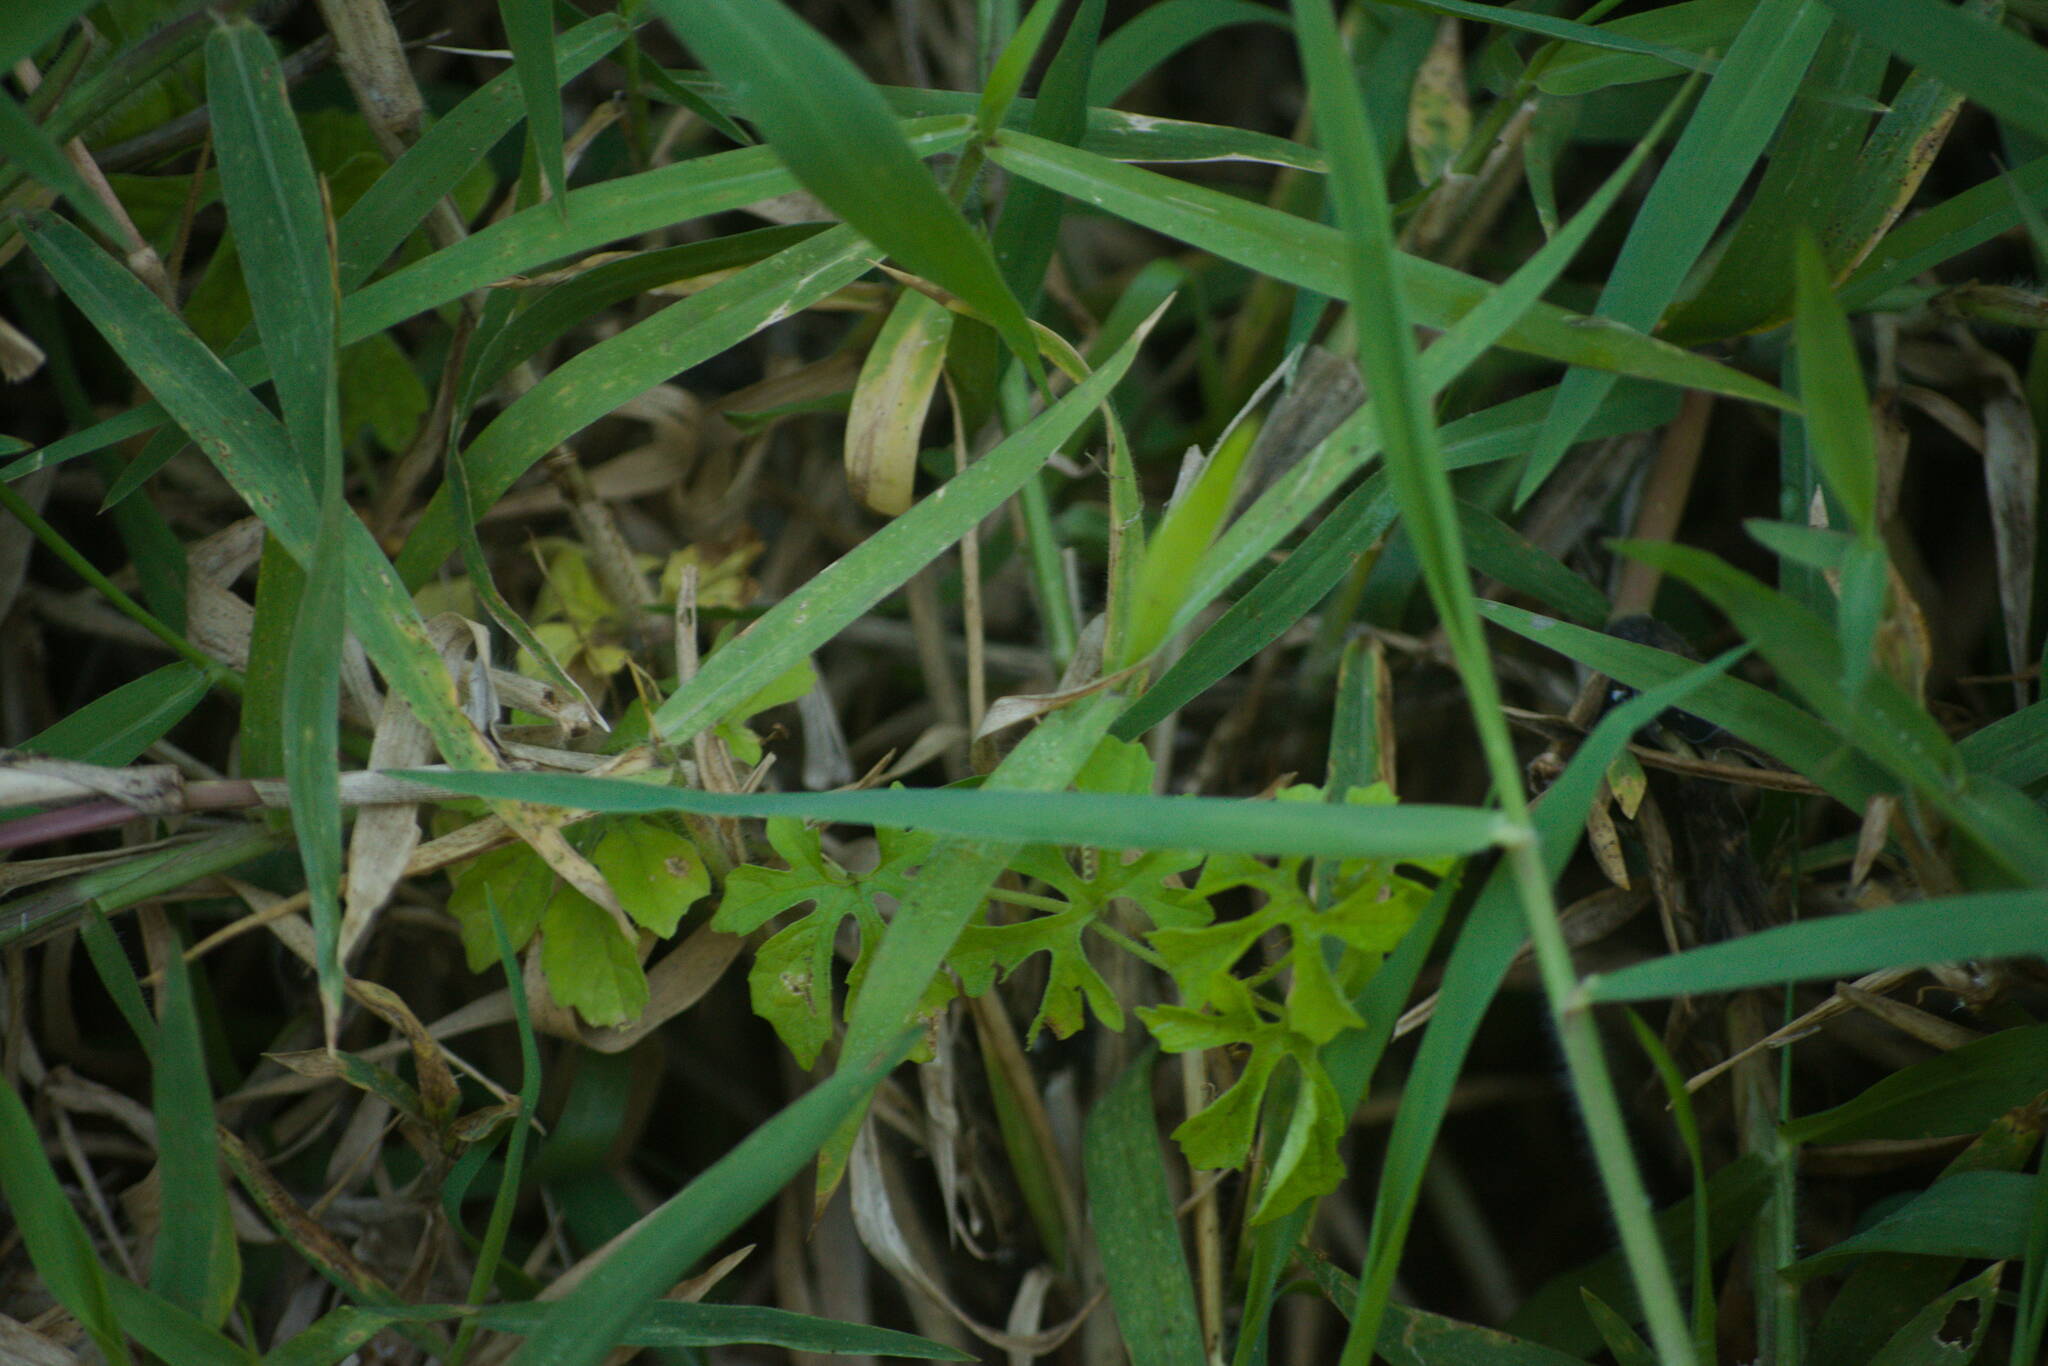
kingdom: Plantae
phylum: Tracheophyta
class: Magnoliopsida
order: Cucurbitales
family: Cucurbitaceae
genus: Momordica
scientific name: Momordica charantia
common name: Balsampear
